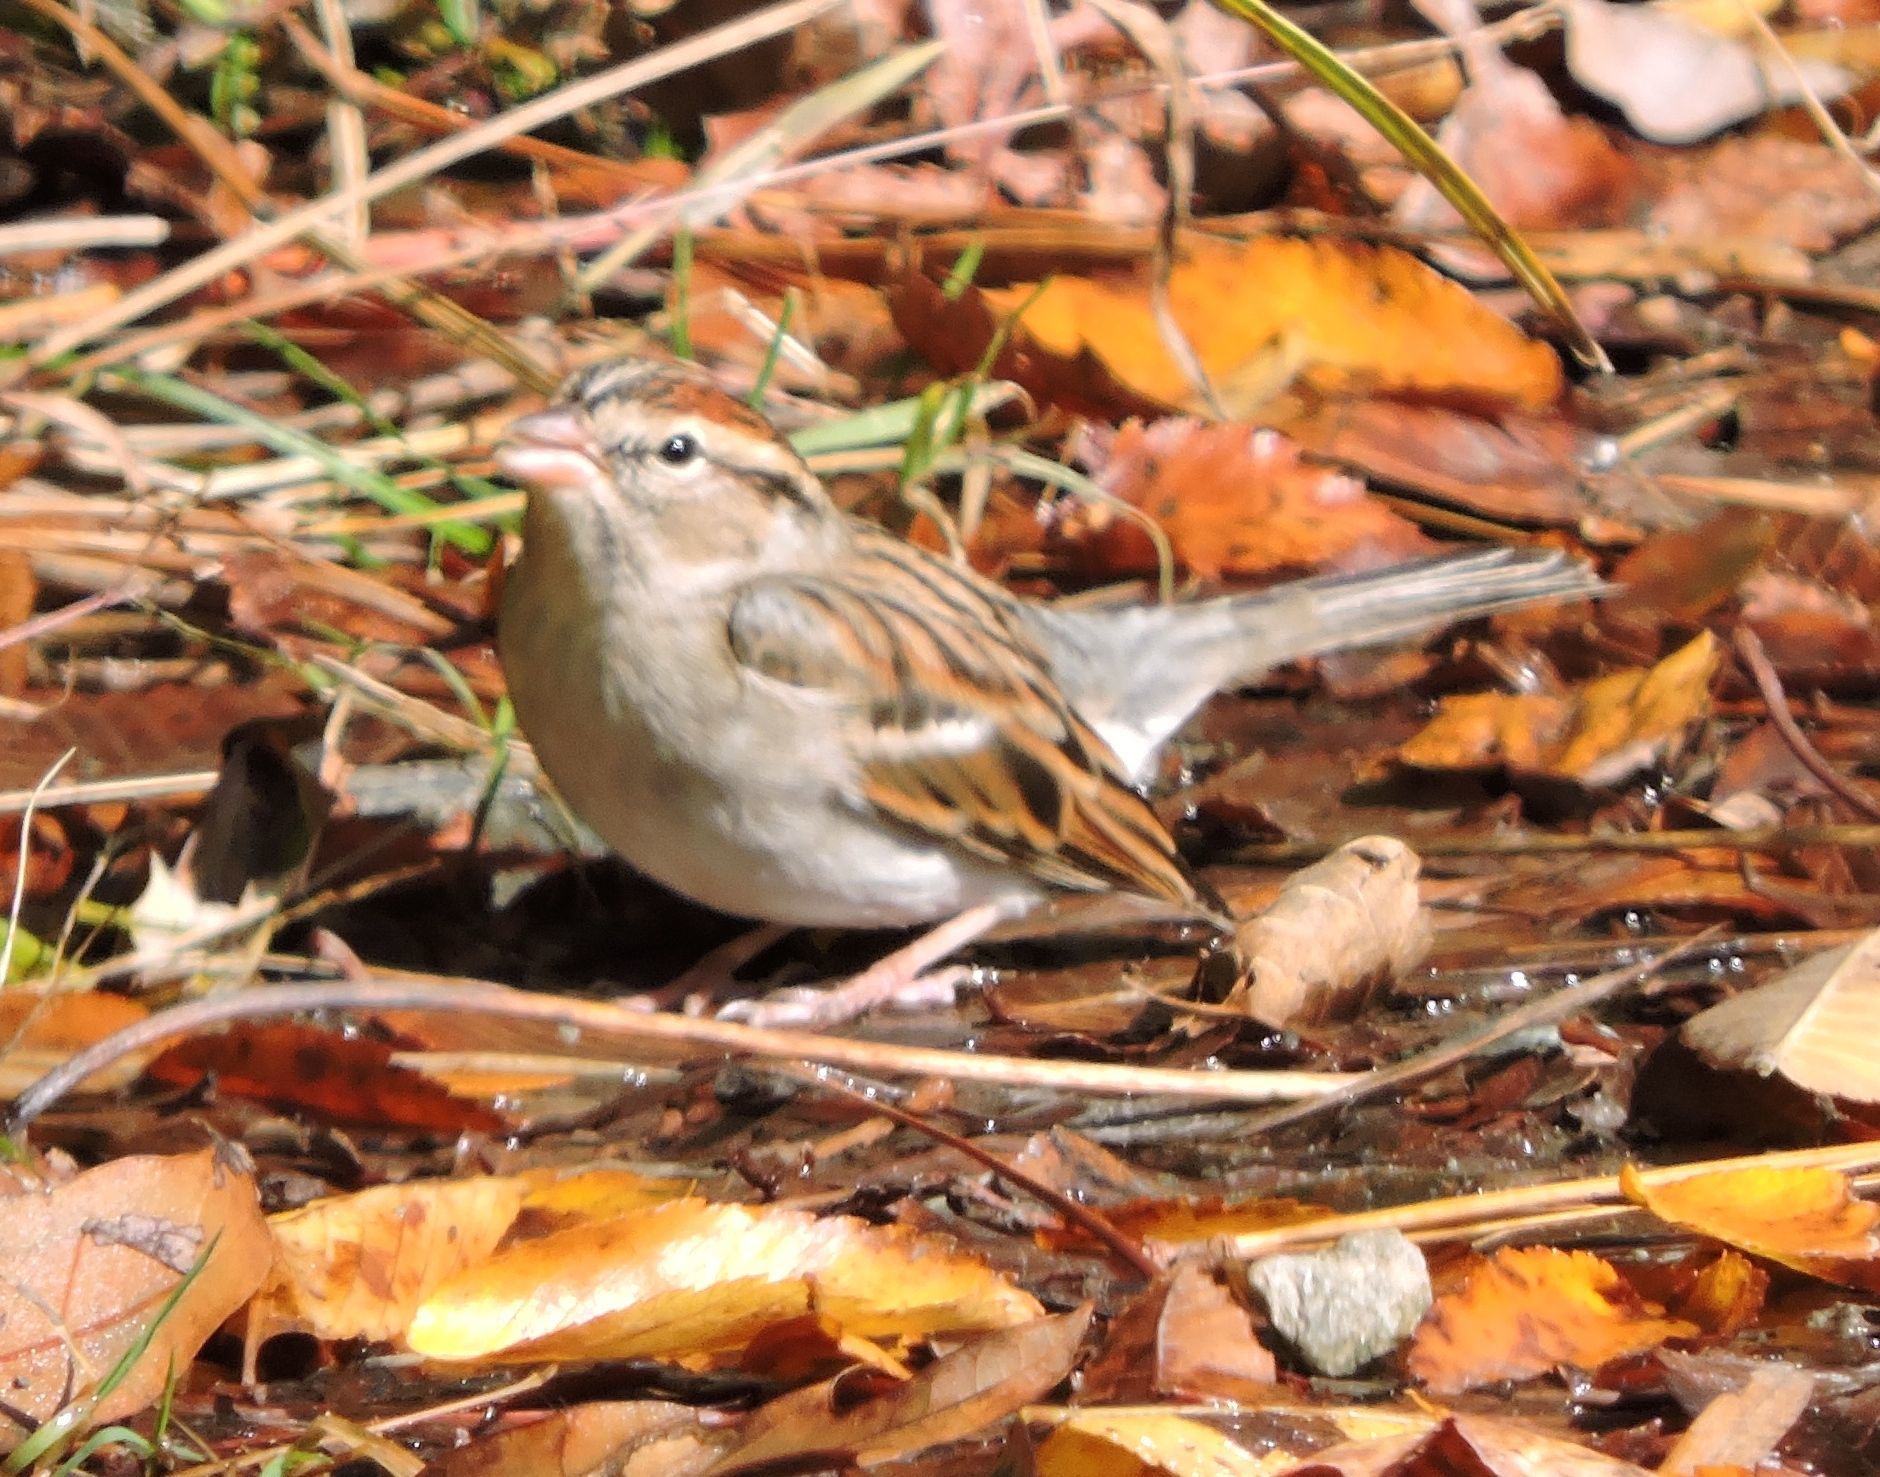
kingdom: Animalia
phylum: Chordata
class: Aves
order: Passeriformes
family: Passerellidae
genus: Spizella
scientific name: Spizella passerina
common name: Chipping sparrow
